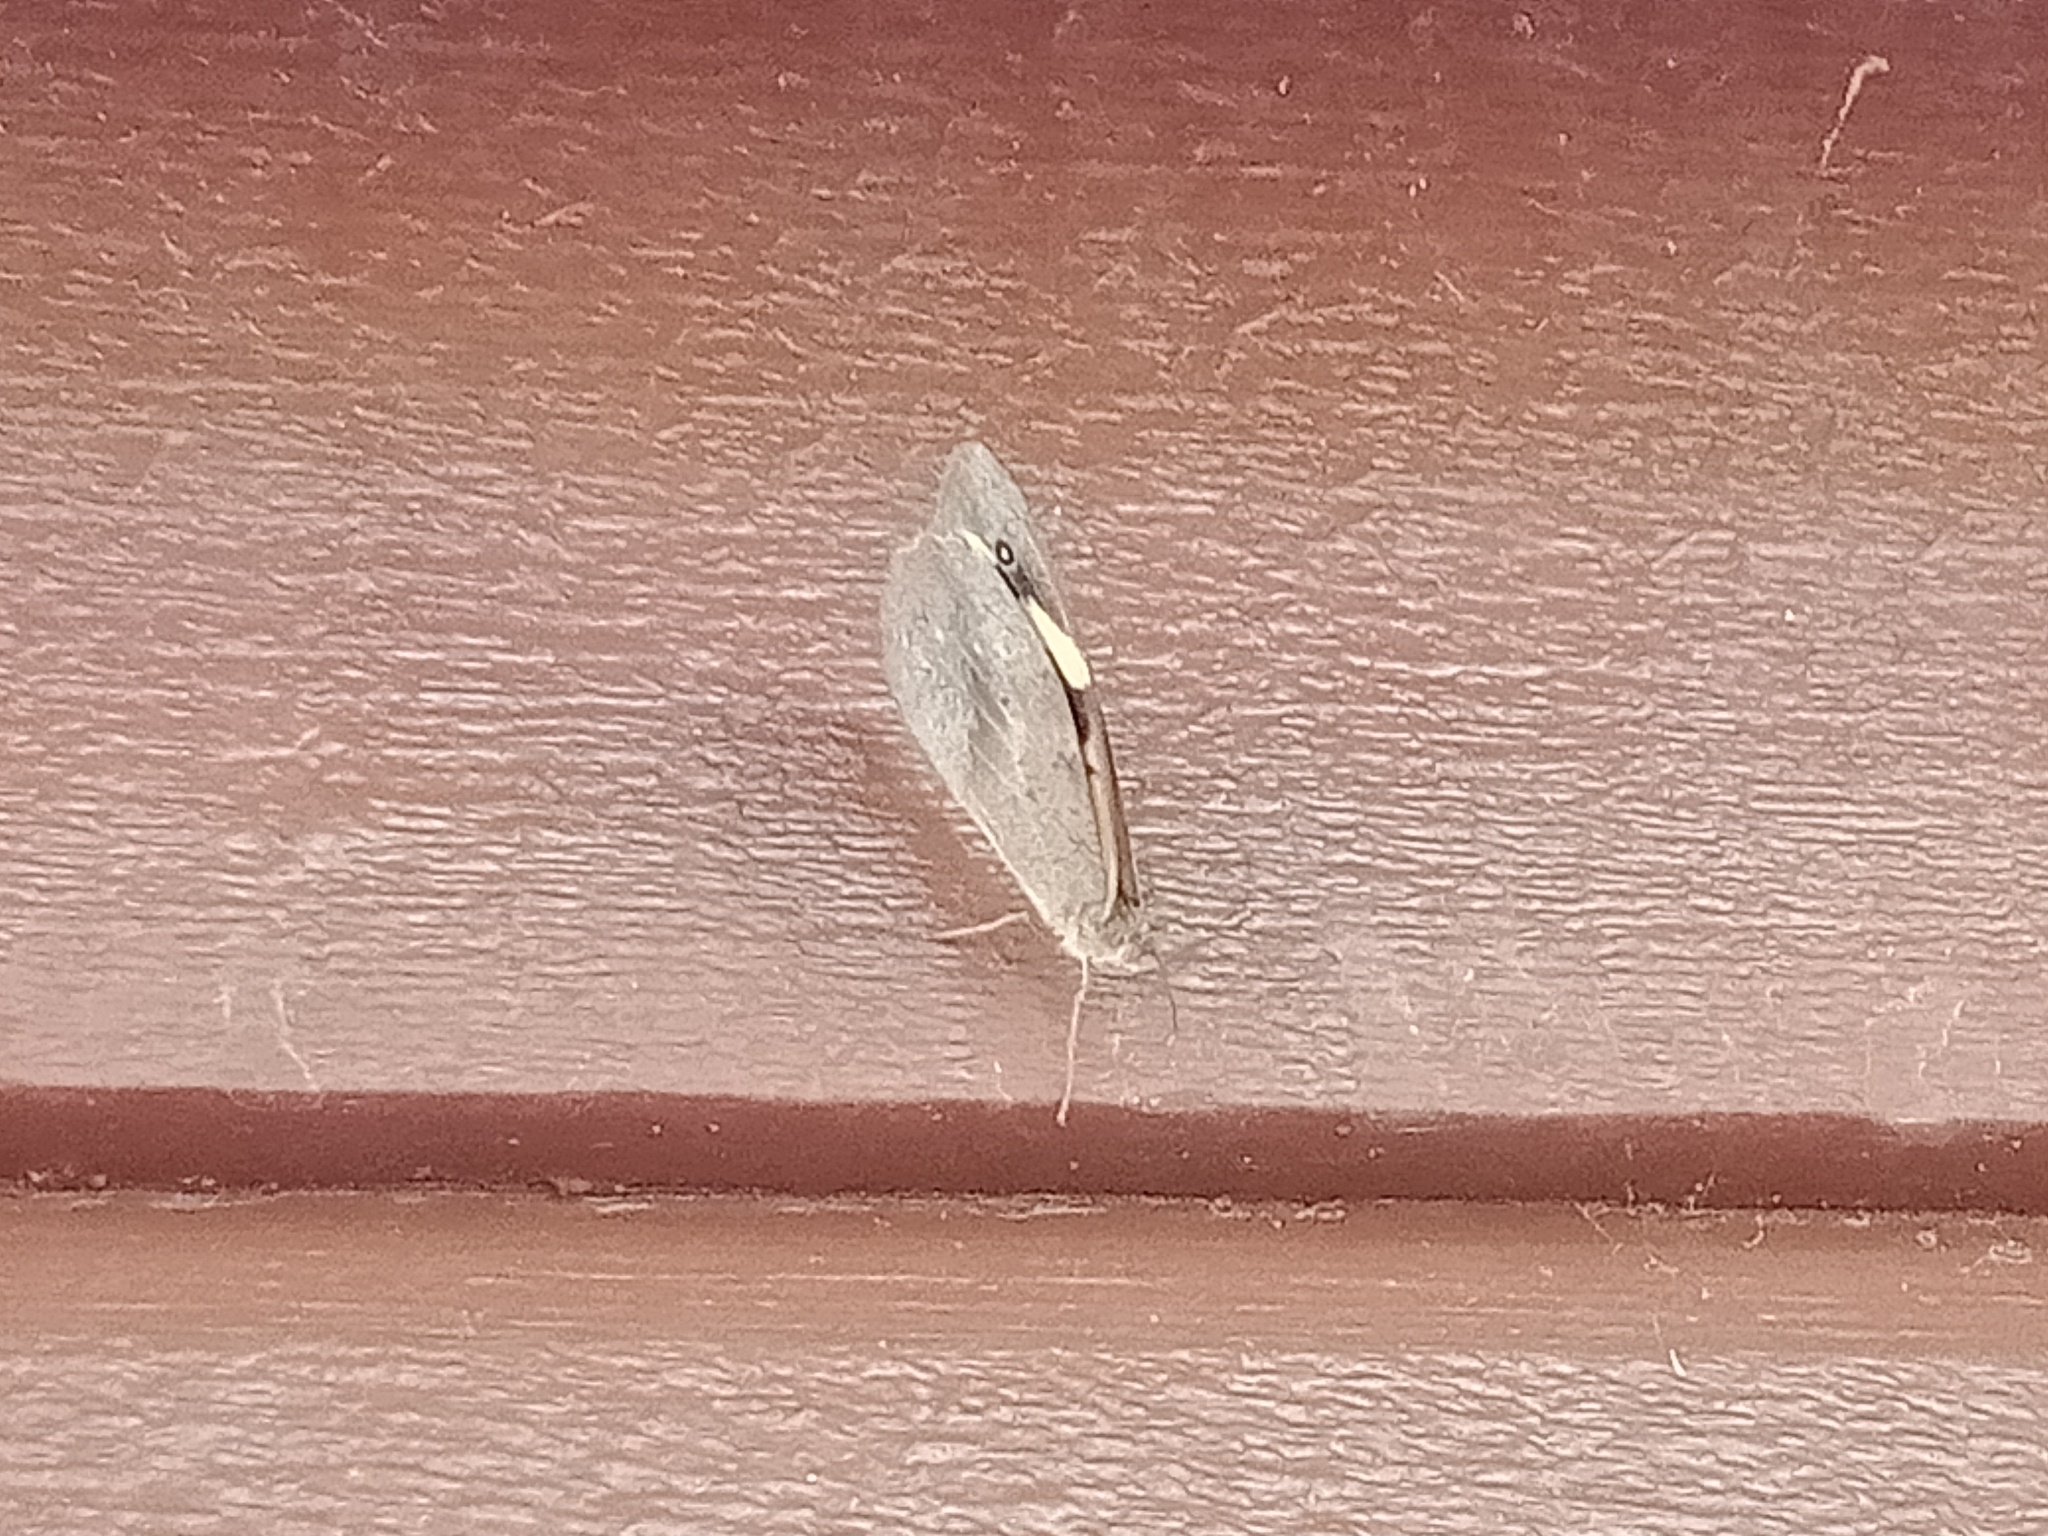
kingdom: Animalia
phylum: Arthropoda
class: Insecta
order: Lepidoptera
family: Nymphalidae
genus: Heteronympha
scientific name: Heteronympha merope
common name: Common brown
